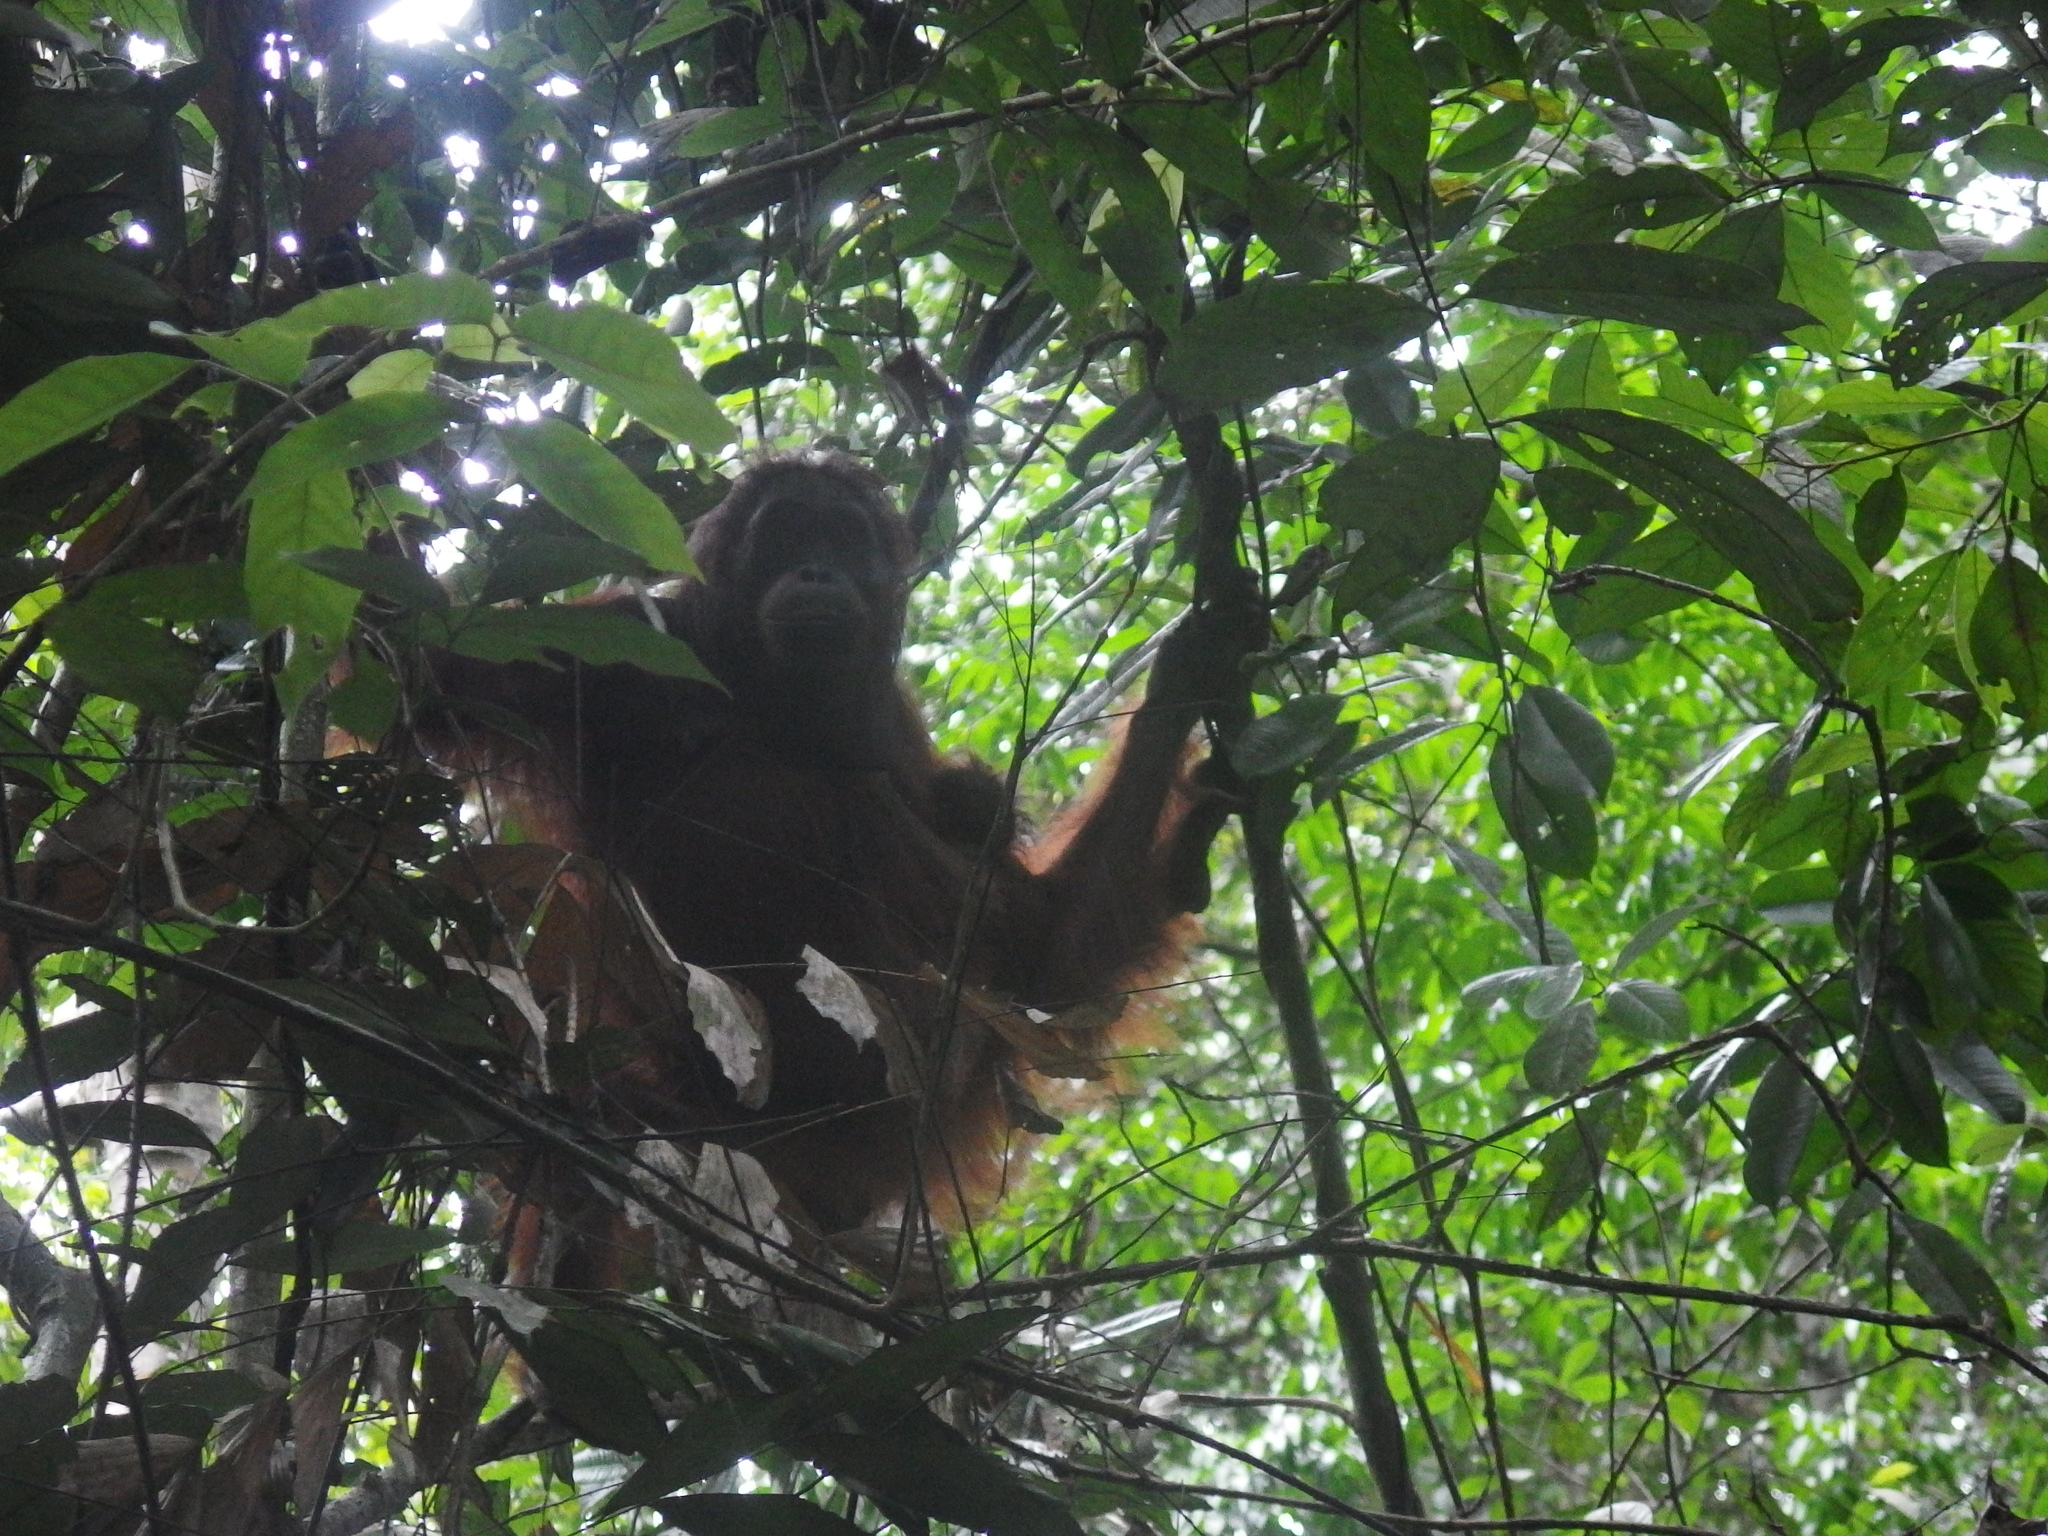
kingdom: Animalia
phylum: Chordata
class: Mammalia
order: Primates
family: Hominidae
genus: Pongo
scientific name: Pongo pygmaeus
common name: Bornean orangutan
